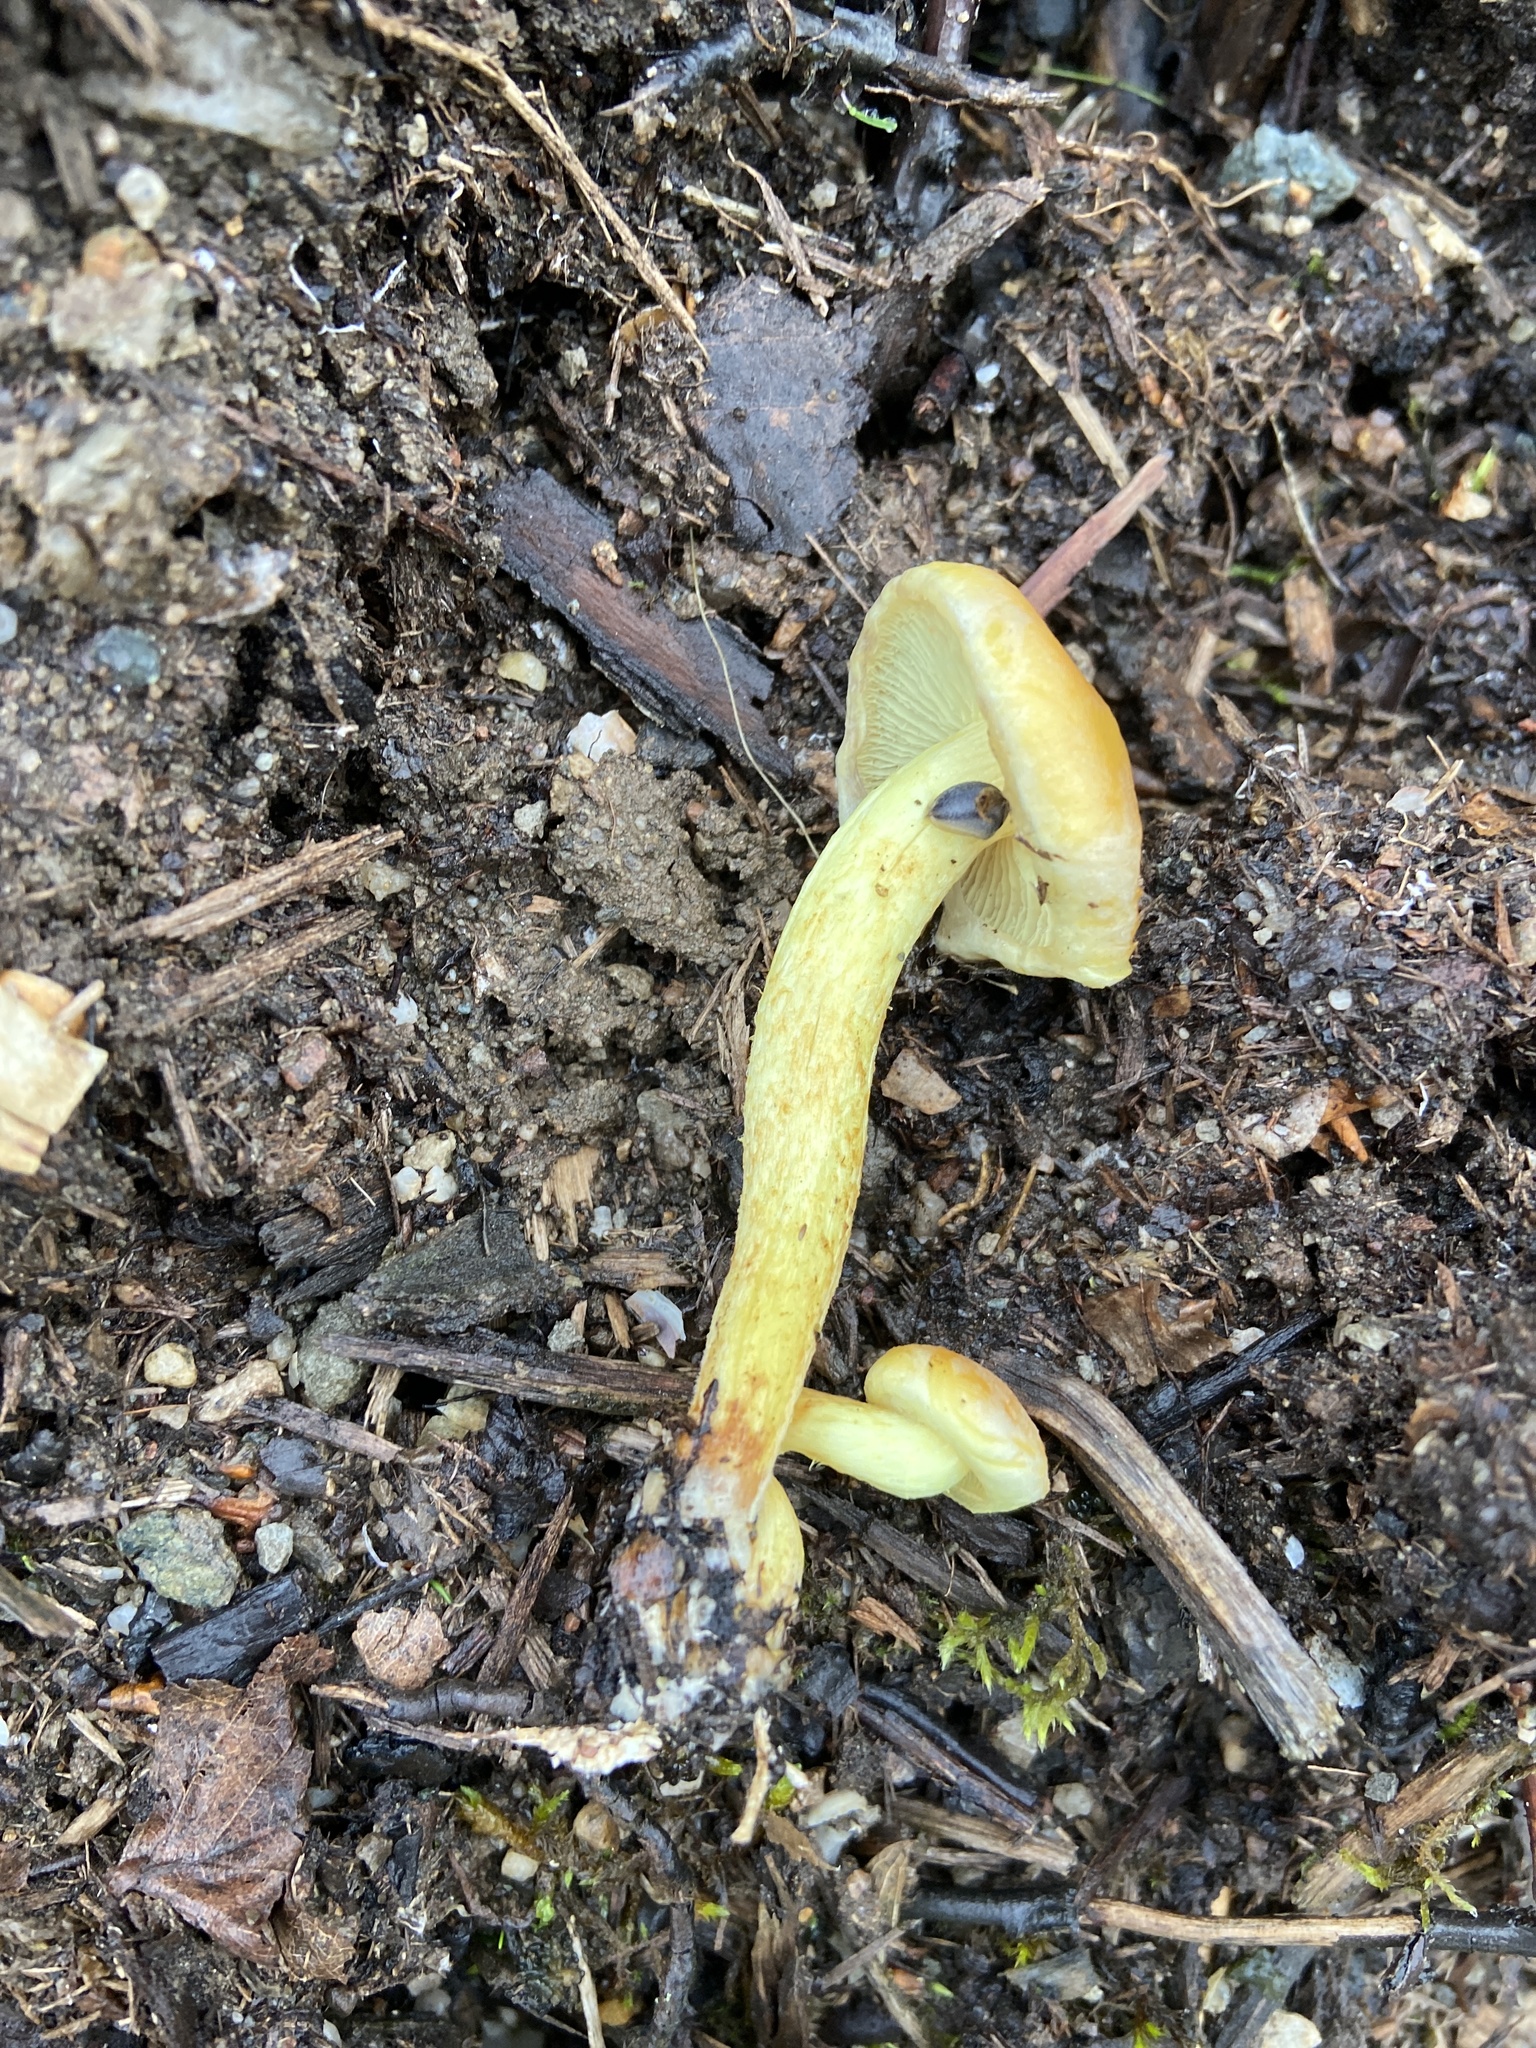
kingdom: Fungi
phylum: Basidiomycota
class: Agaricomycetes
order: Agaricales
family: Strophariaceae
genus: Hypholoma
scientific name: Hypholoma fasciculare
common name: Sulphur tuft
